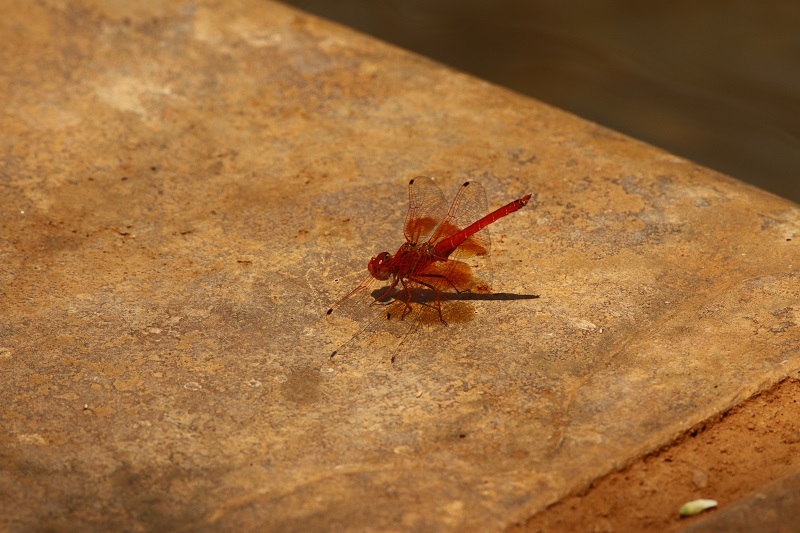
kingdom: Animalia
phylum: Arthropoda
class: Insecta
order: Odonata
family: Libellulidae
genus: Trithemis
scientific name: Trithemis kirbyi
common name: Kirby's dropwing
